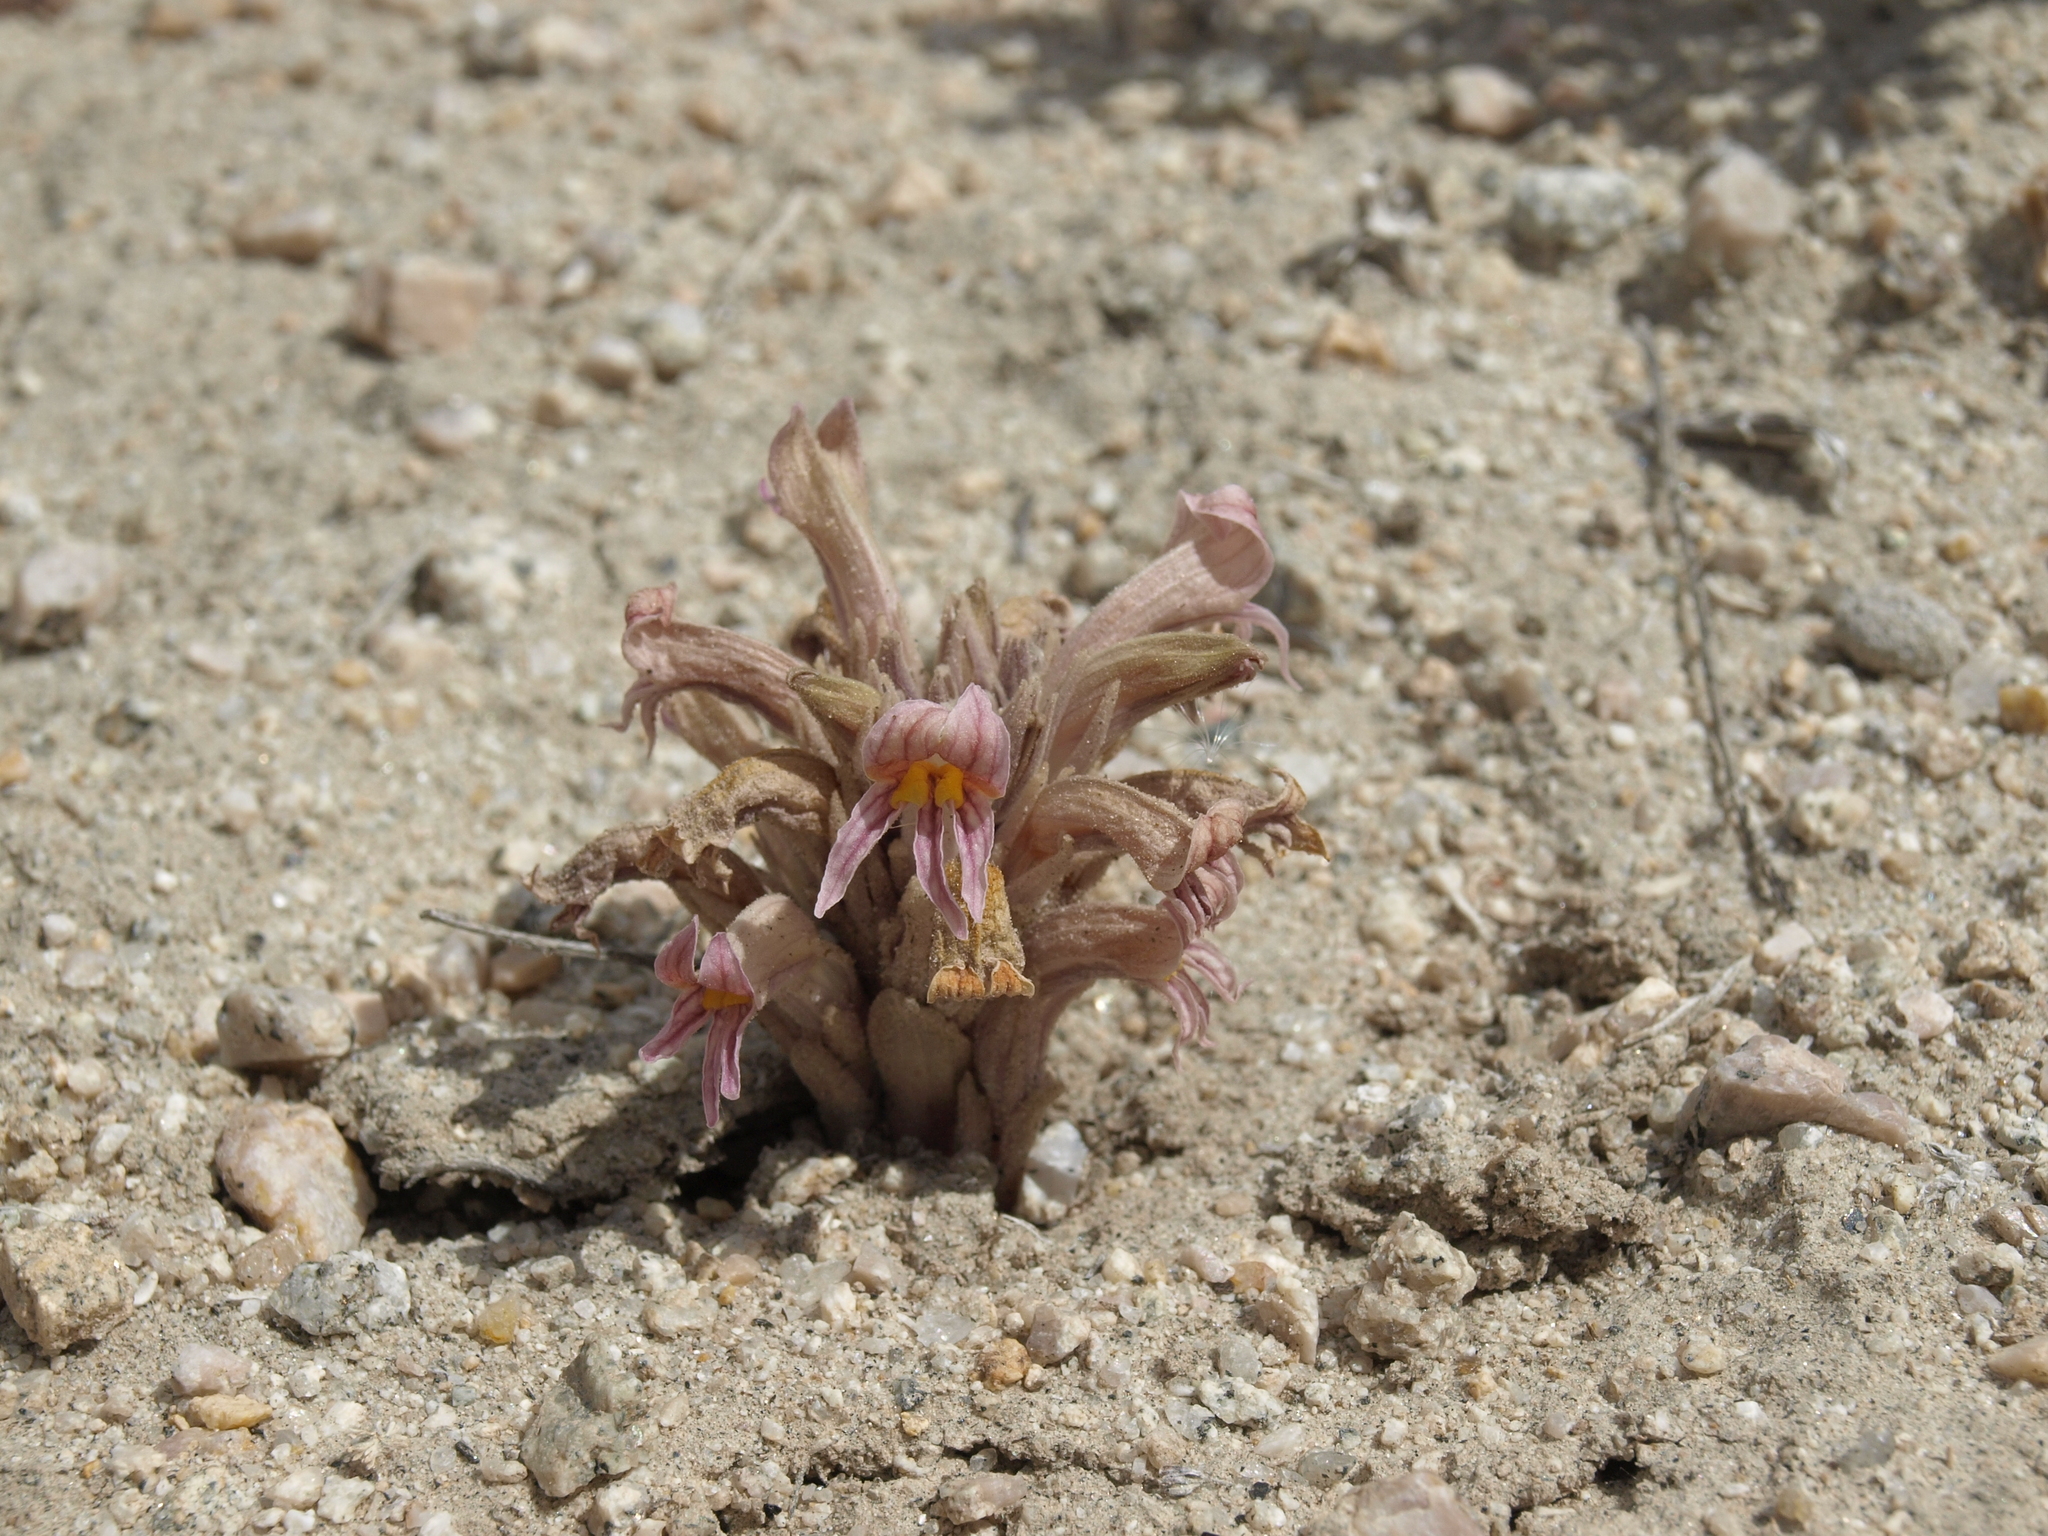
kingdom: Plantae
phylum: Tracheophyta
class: Magnoliopsida
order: Lamiales
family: Orobanchaceae
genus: Aphyllon
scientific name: Aphyllon corymbosum
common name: Flat-top broomrape
